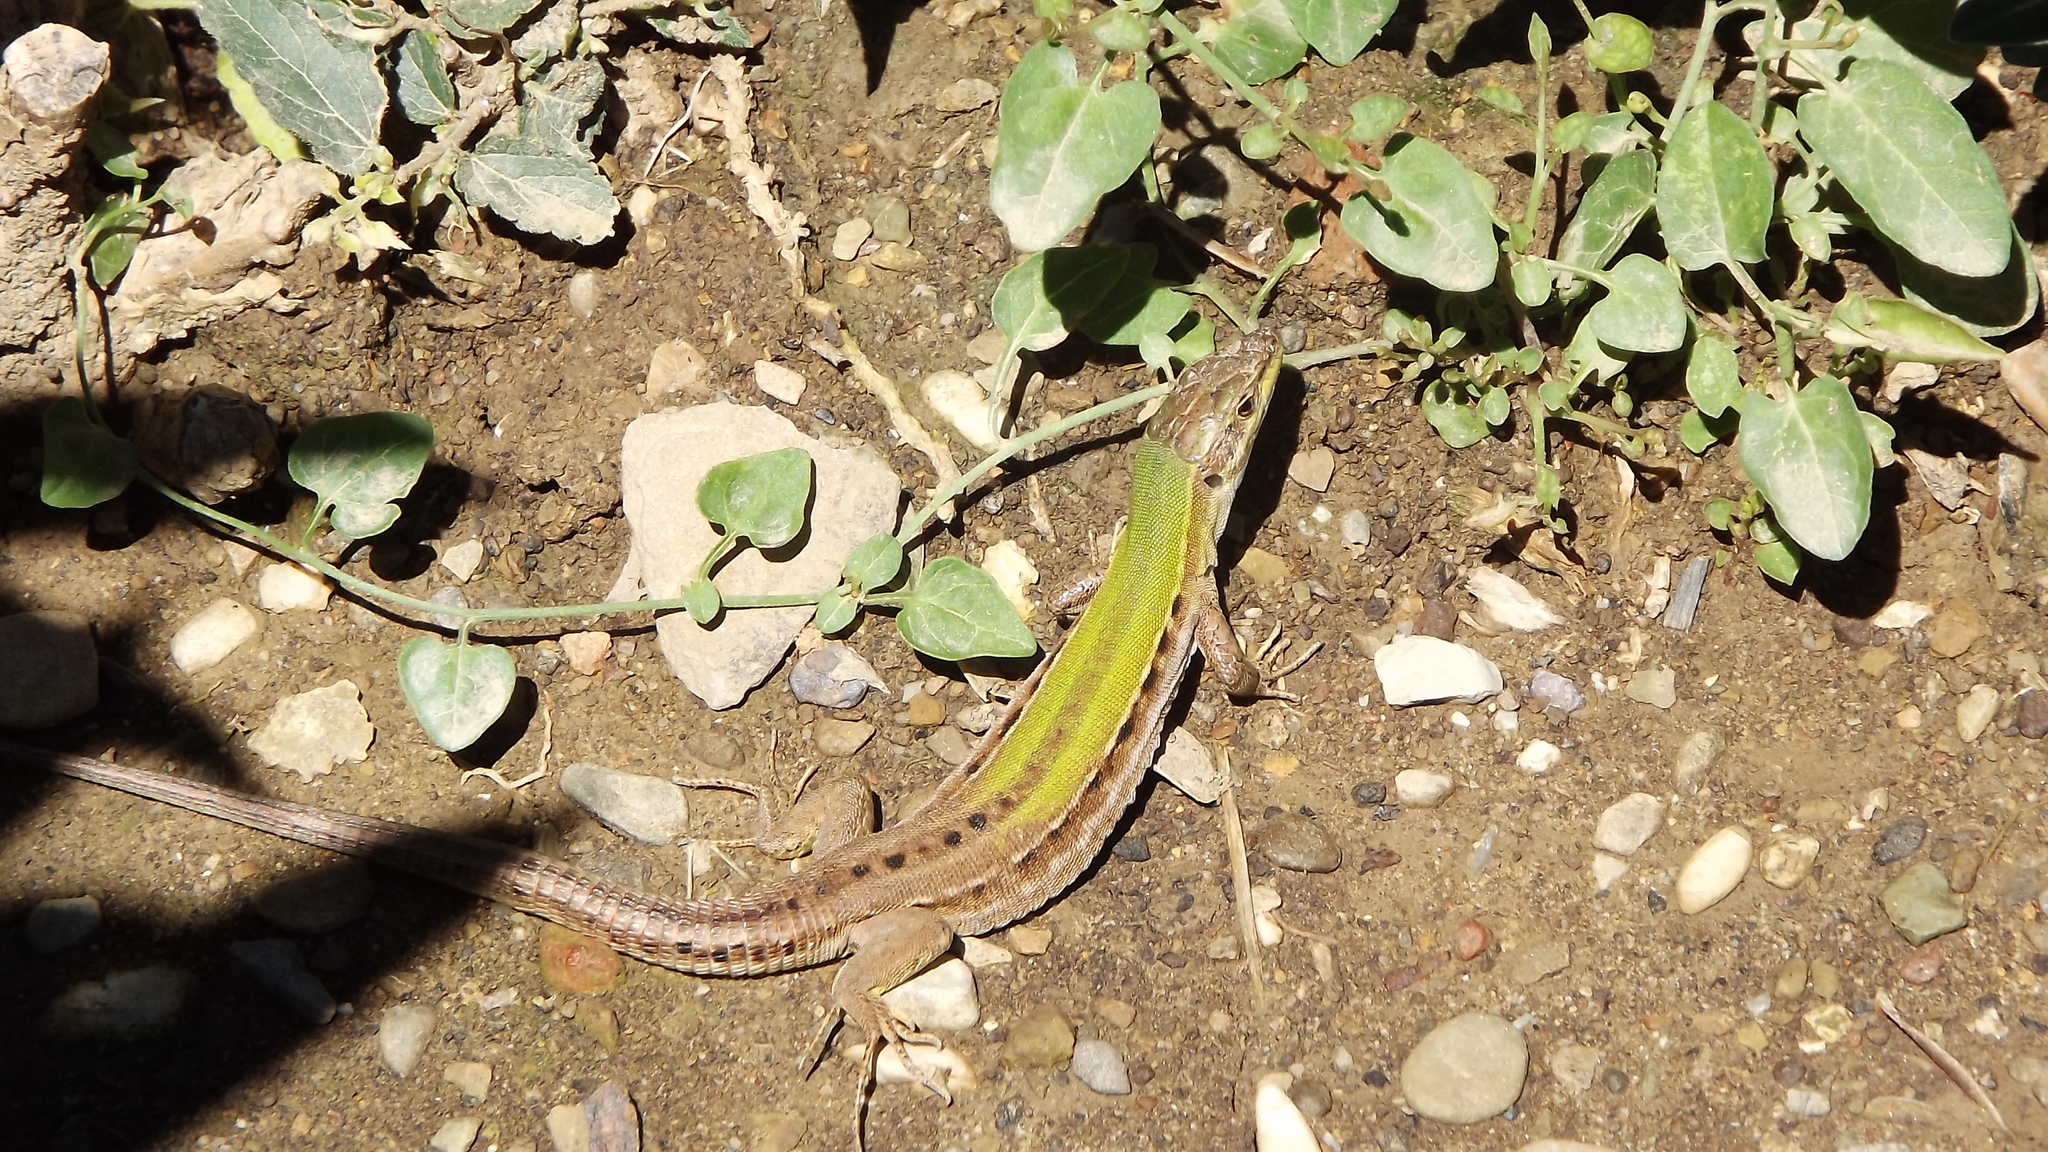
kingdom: Animalia
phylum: Chordata
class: Squamata
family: Lacertidae
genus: Podarcis
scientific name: Podarcis siculus
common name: Italian wall lizard
